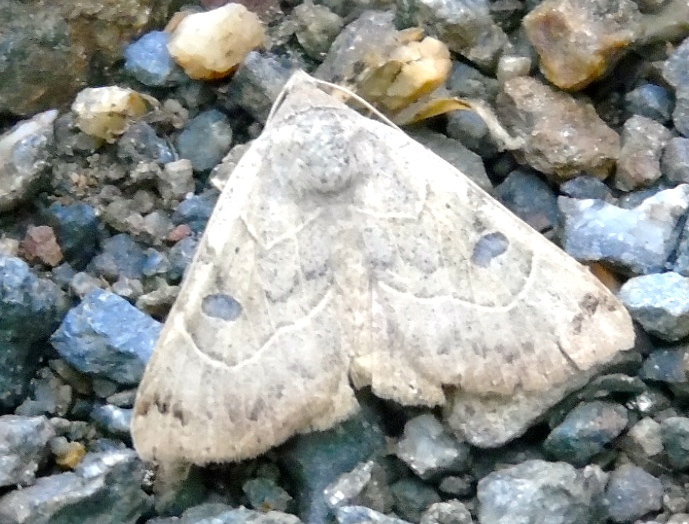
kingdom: Animalia
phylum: Arthropoda
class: Insecta
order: Lepidoptera
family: Erebidae
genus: Isogona
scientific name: Isogona
